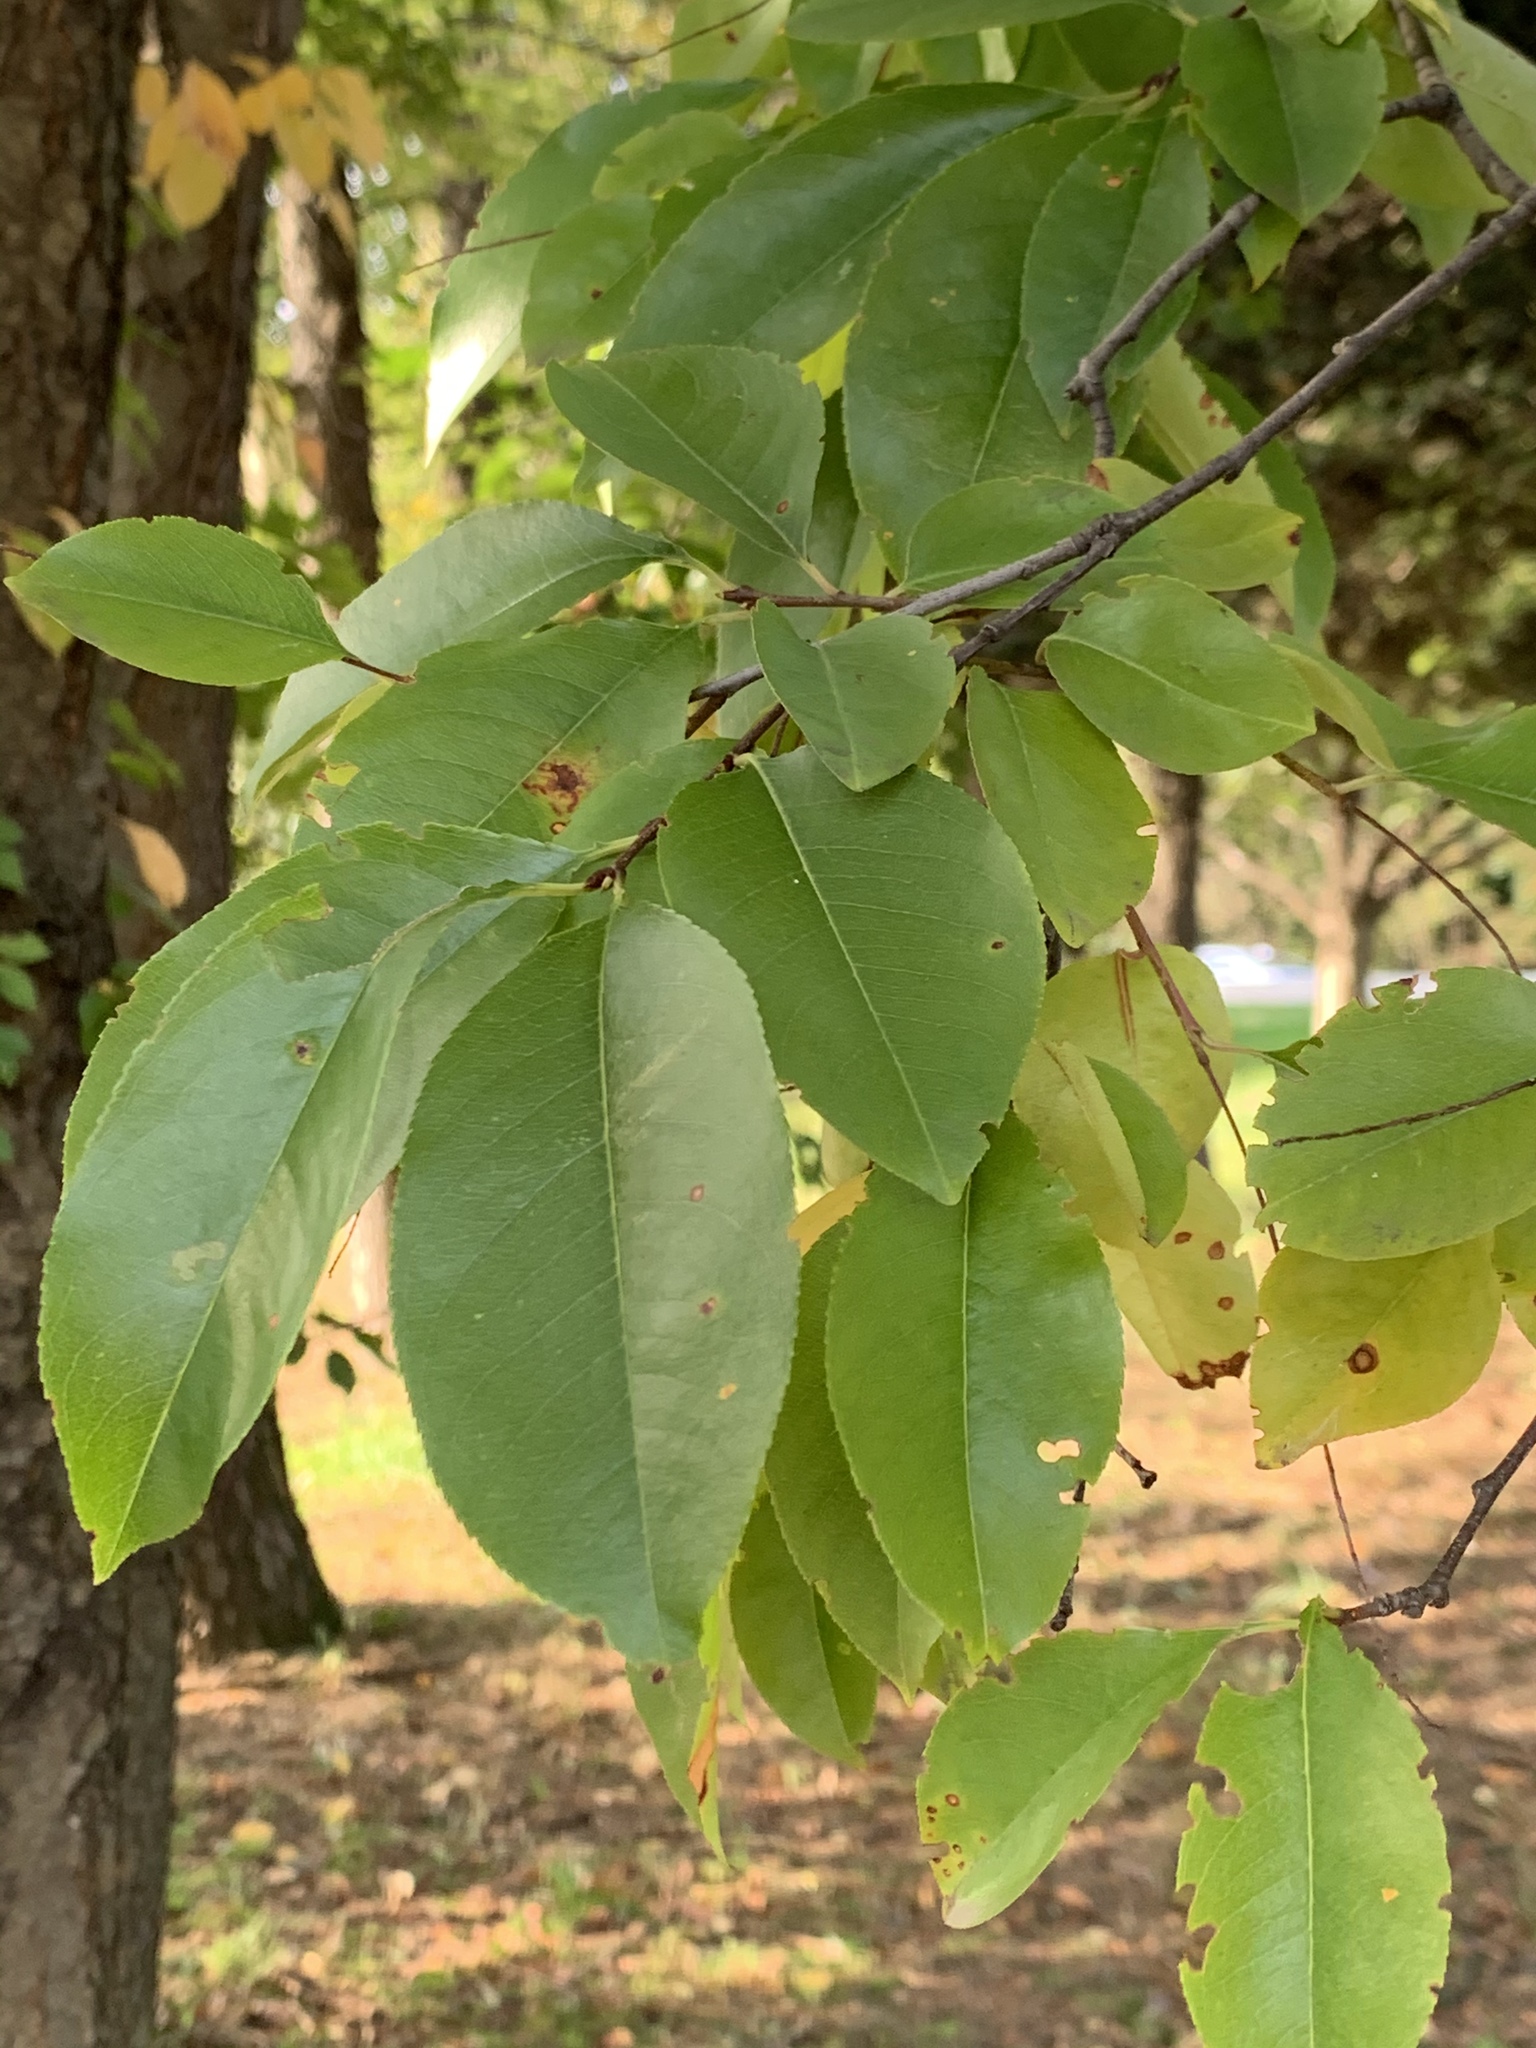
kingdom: Plantae
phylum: Tracheophyta
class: Magnoliopsida
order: Rosales
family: Rosaceae
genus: Prunus
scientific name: Prunus serotina
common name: Black cherry
